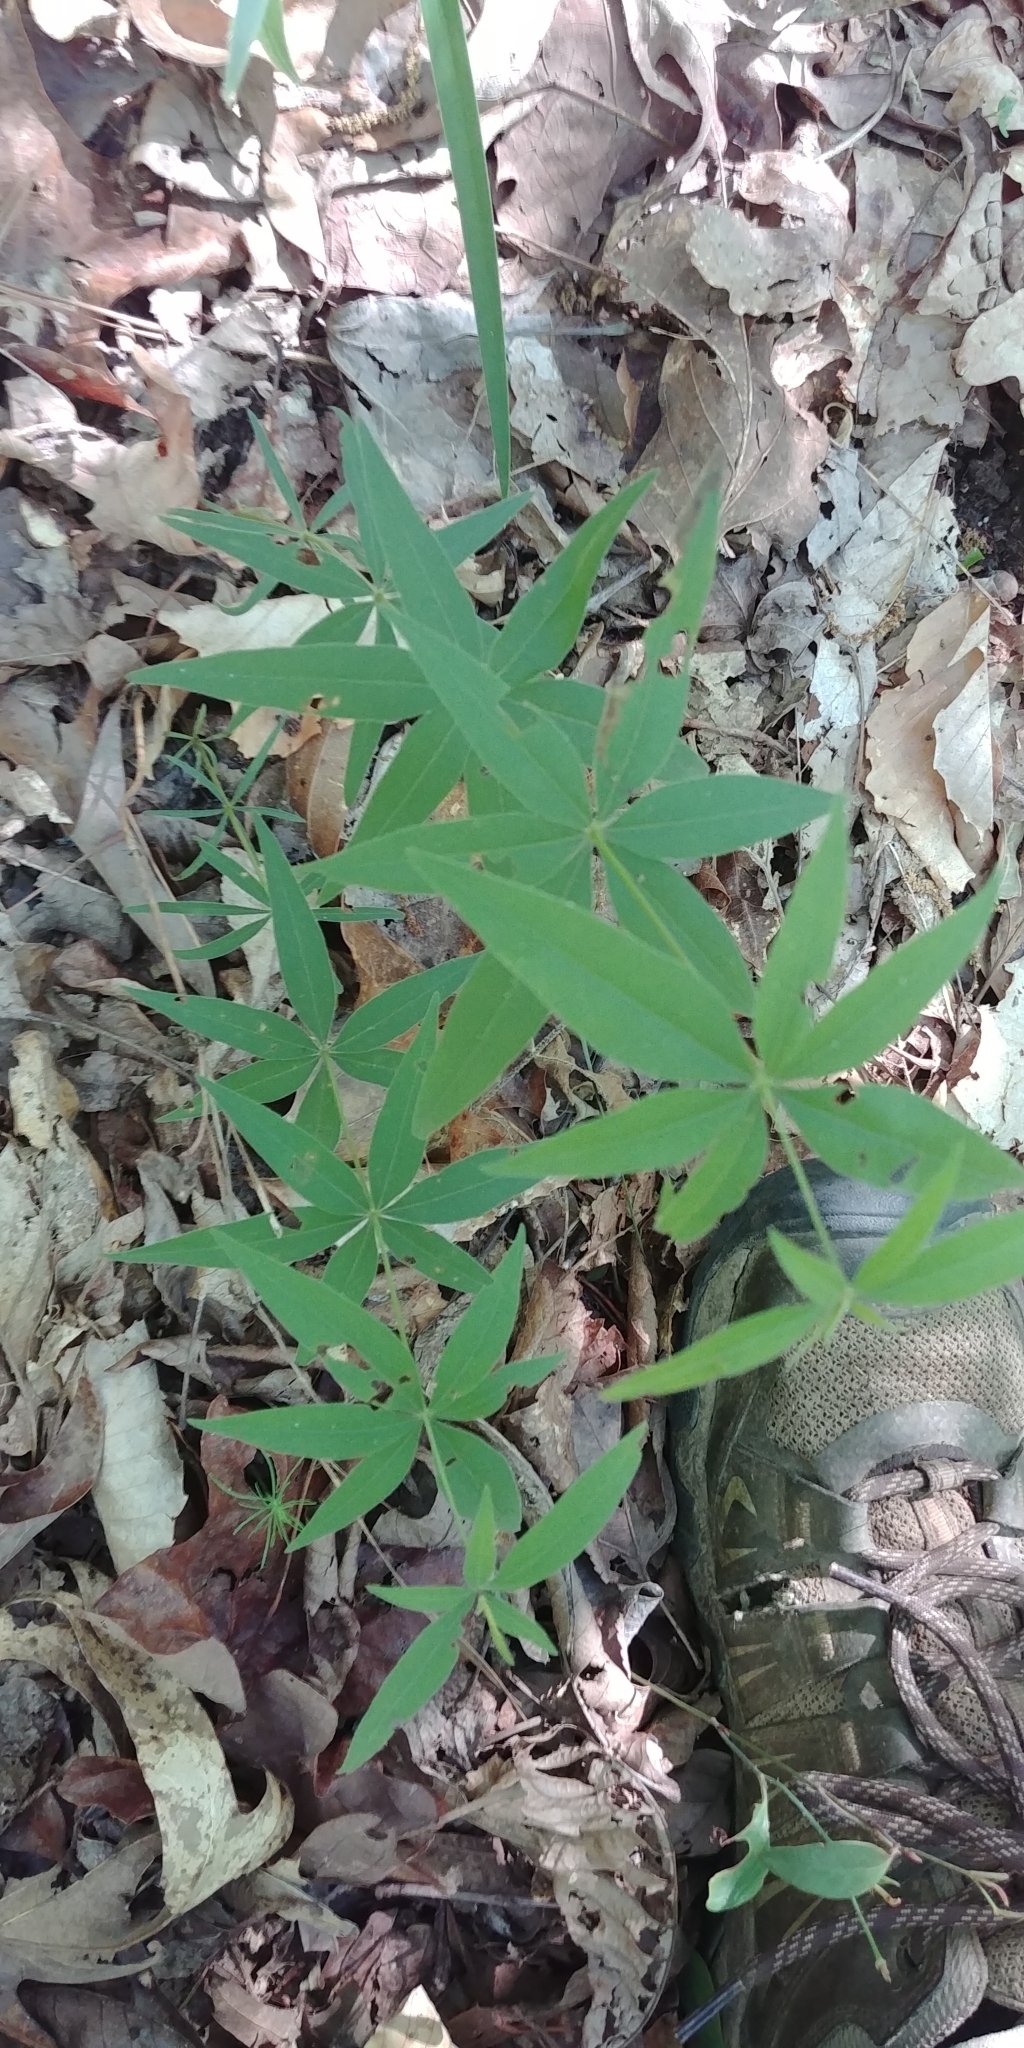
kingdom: Plantae
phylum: Tracheophyta
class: Magnoliopsida
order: Asterales
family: Asteraceae
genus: Coreopsis
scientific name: Coreopsis major
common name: Forest tickseed
